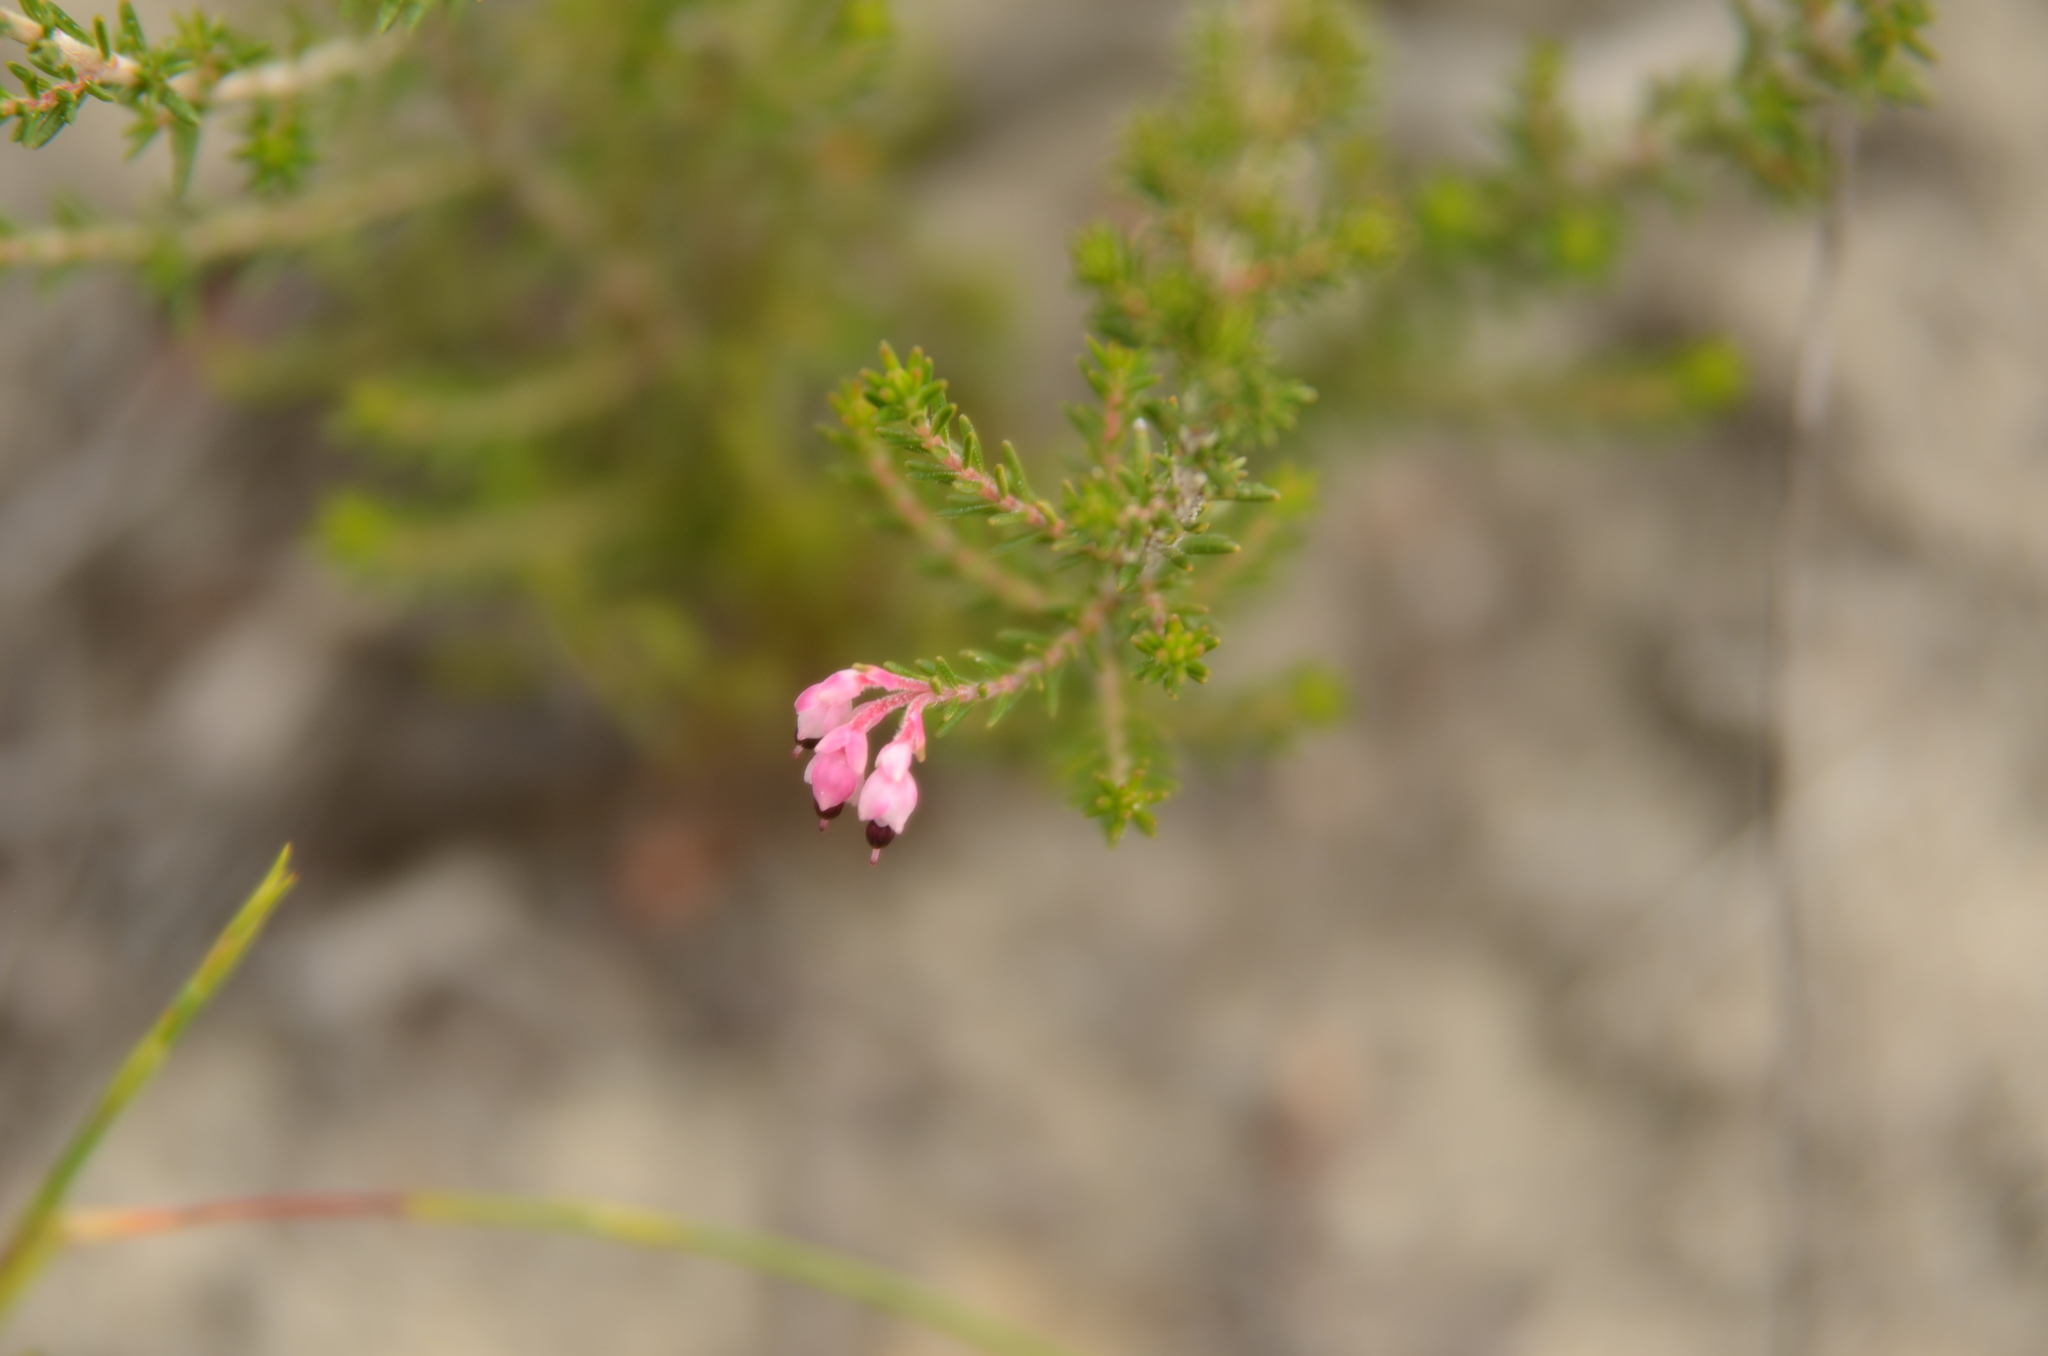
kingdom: Plantae
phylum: Tracheophyta
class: Magnoliopsida
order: Ericales
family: Ericaceae
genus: Erica
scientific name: Erica placentiflora
